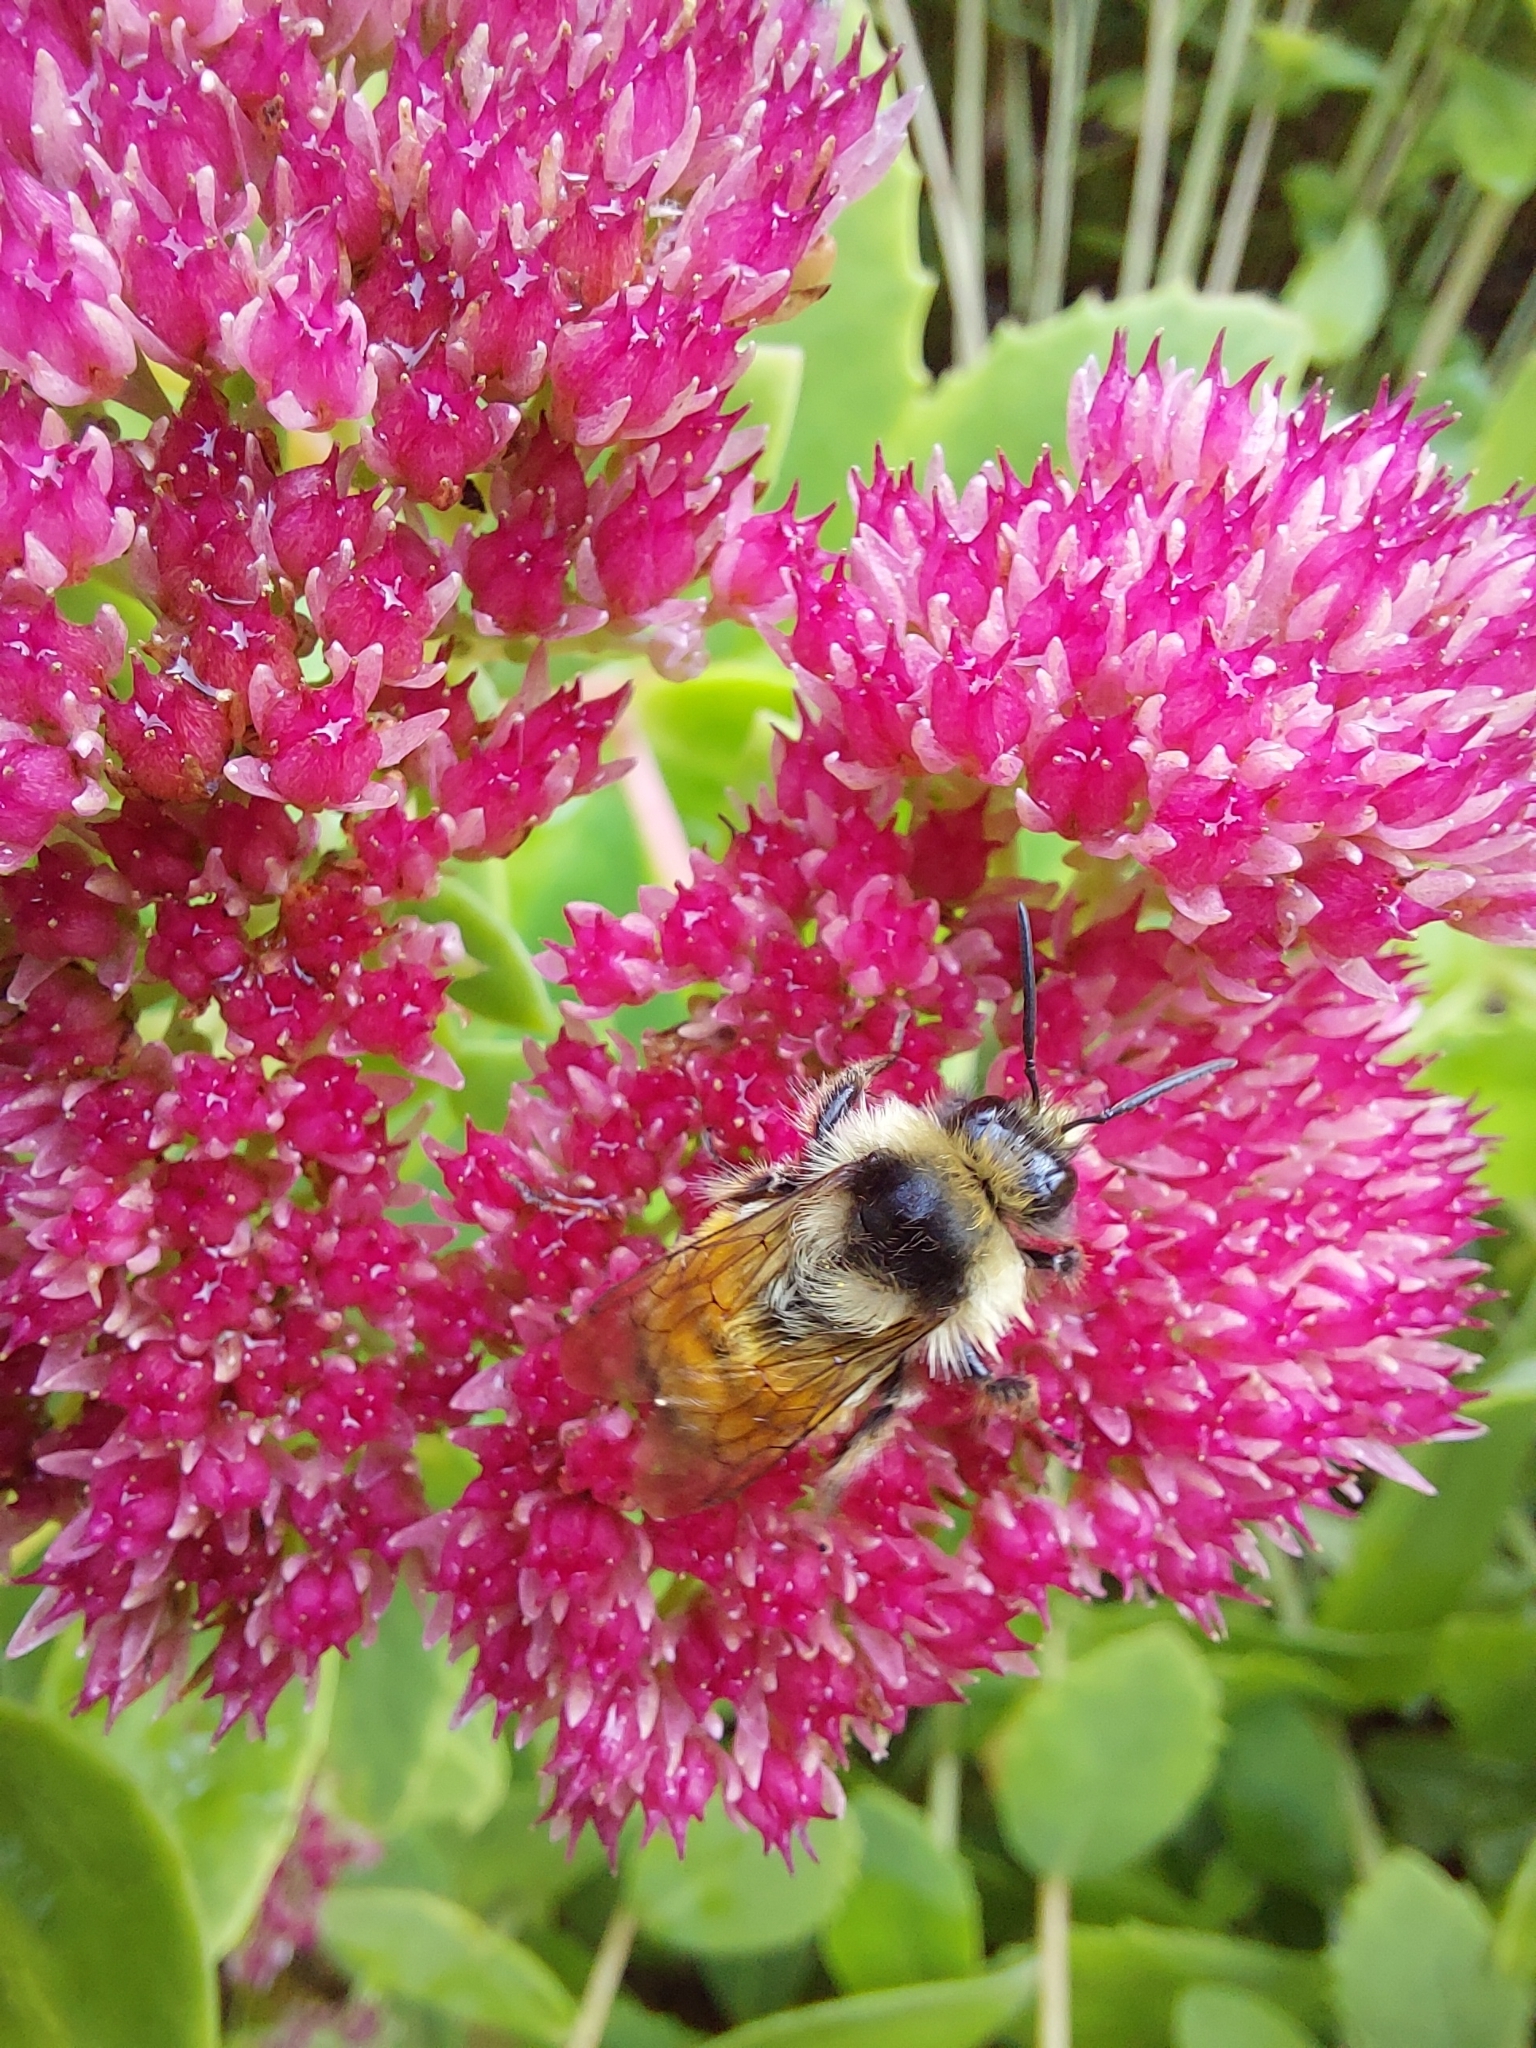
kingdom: Animalia
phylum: Arthropoda
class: Insecta
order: Hymenoptera
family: Apidae
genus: Bombus
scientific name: Bombus ternarius
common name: Tri-colored bumble bee
